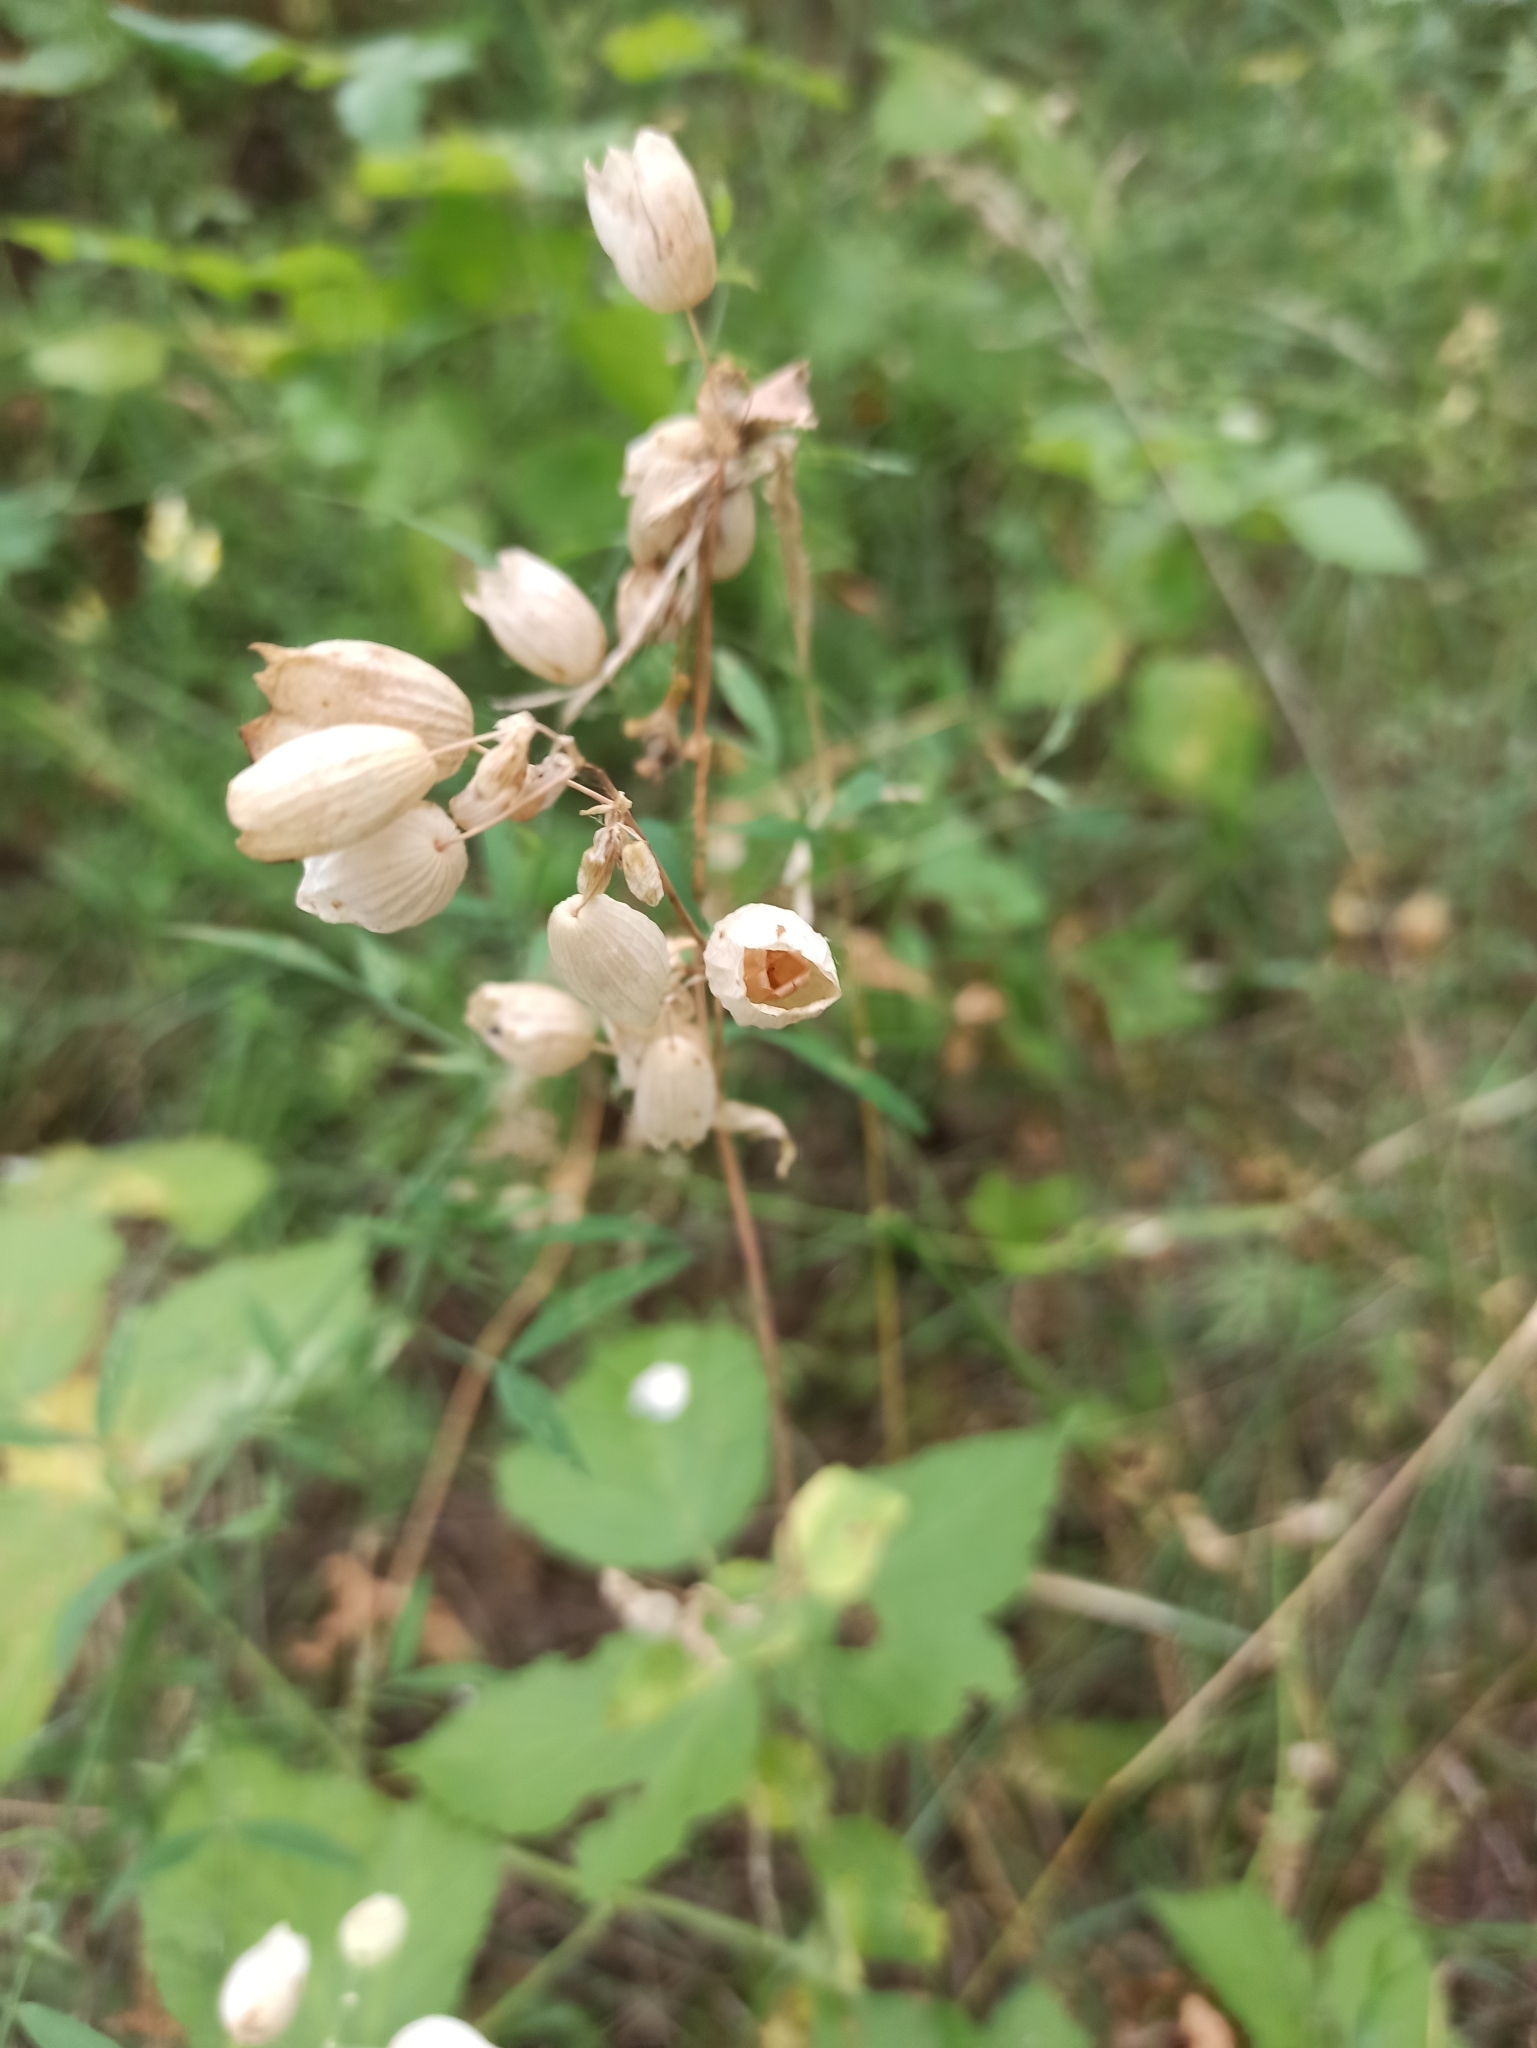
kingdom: Plantae
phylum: Tracheophyta
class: Magnoliopsida
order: Caryophyllales
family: Caryophyllaceae
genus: Silene
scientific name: Silene vulgaris
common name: Bladder campion
